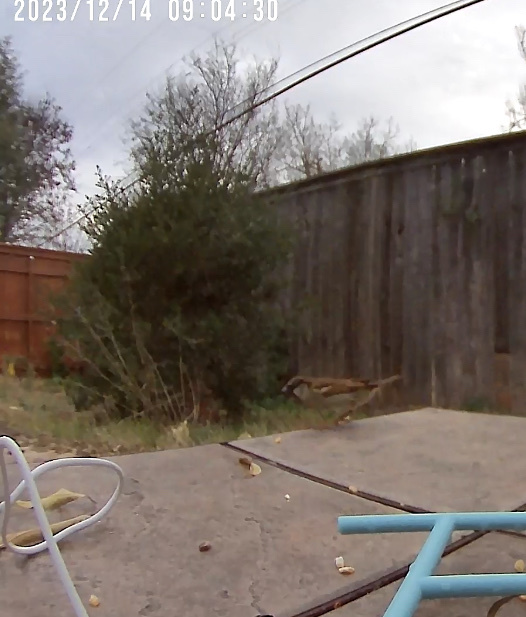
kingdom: Animalia
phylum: Chordata
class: Aves
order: Passeriformes
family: Passeridae
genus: Passer
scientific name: Passer domesticus
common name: House sparrow
